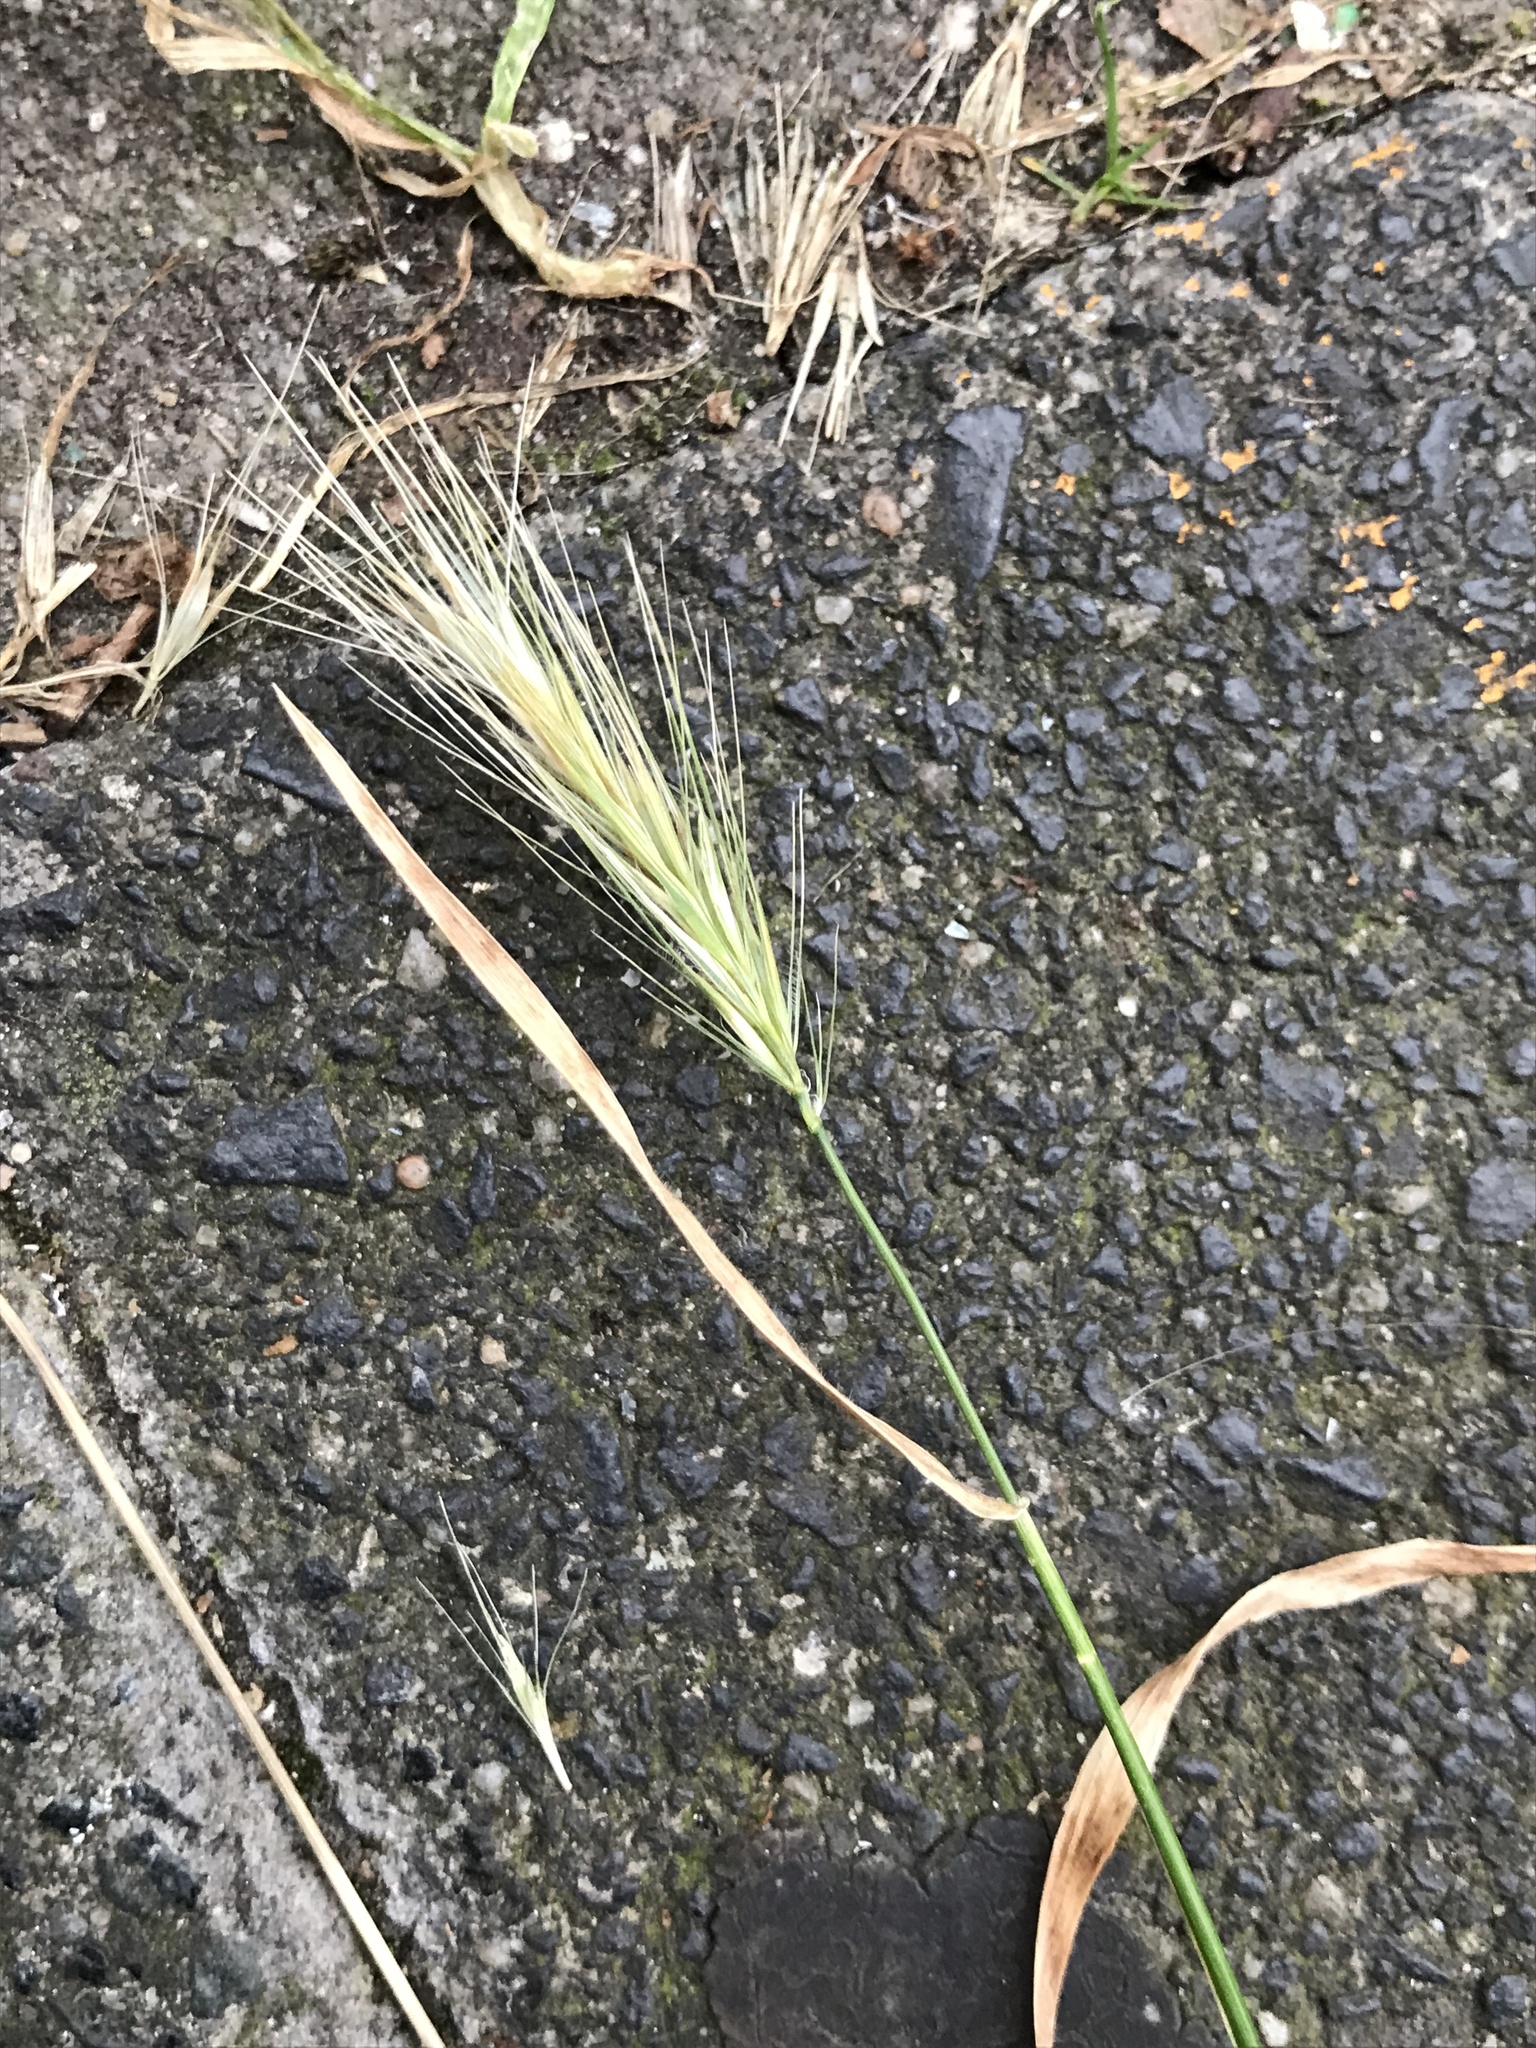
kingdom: Plantae
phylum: Tracheophyta
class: Liliopsida
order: Poales
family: Poaceae
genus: Hordeum
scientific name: Hordeum murinum
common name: Wall barley
